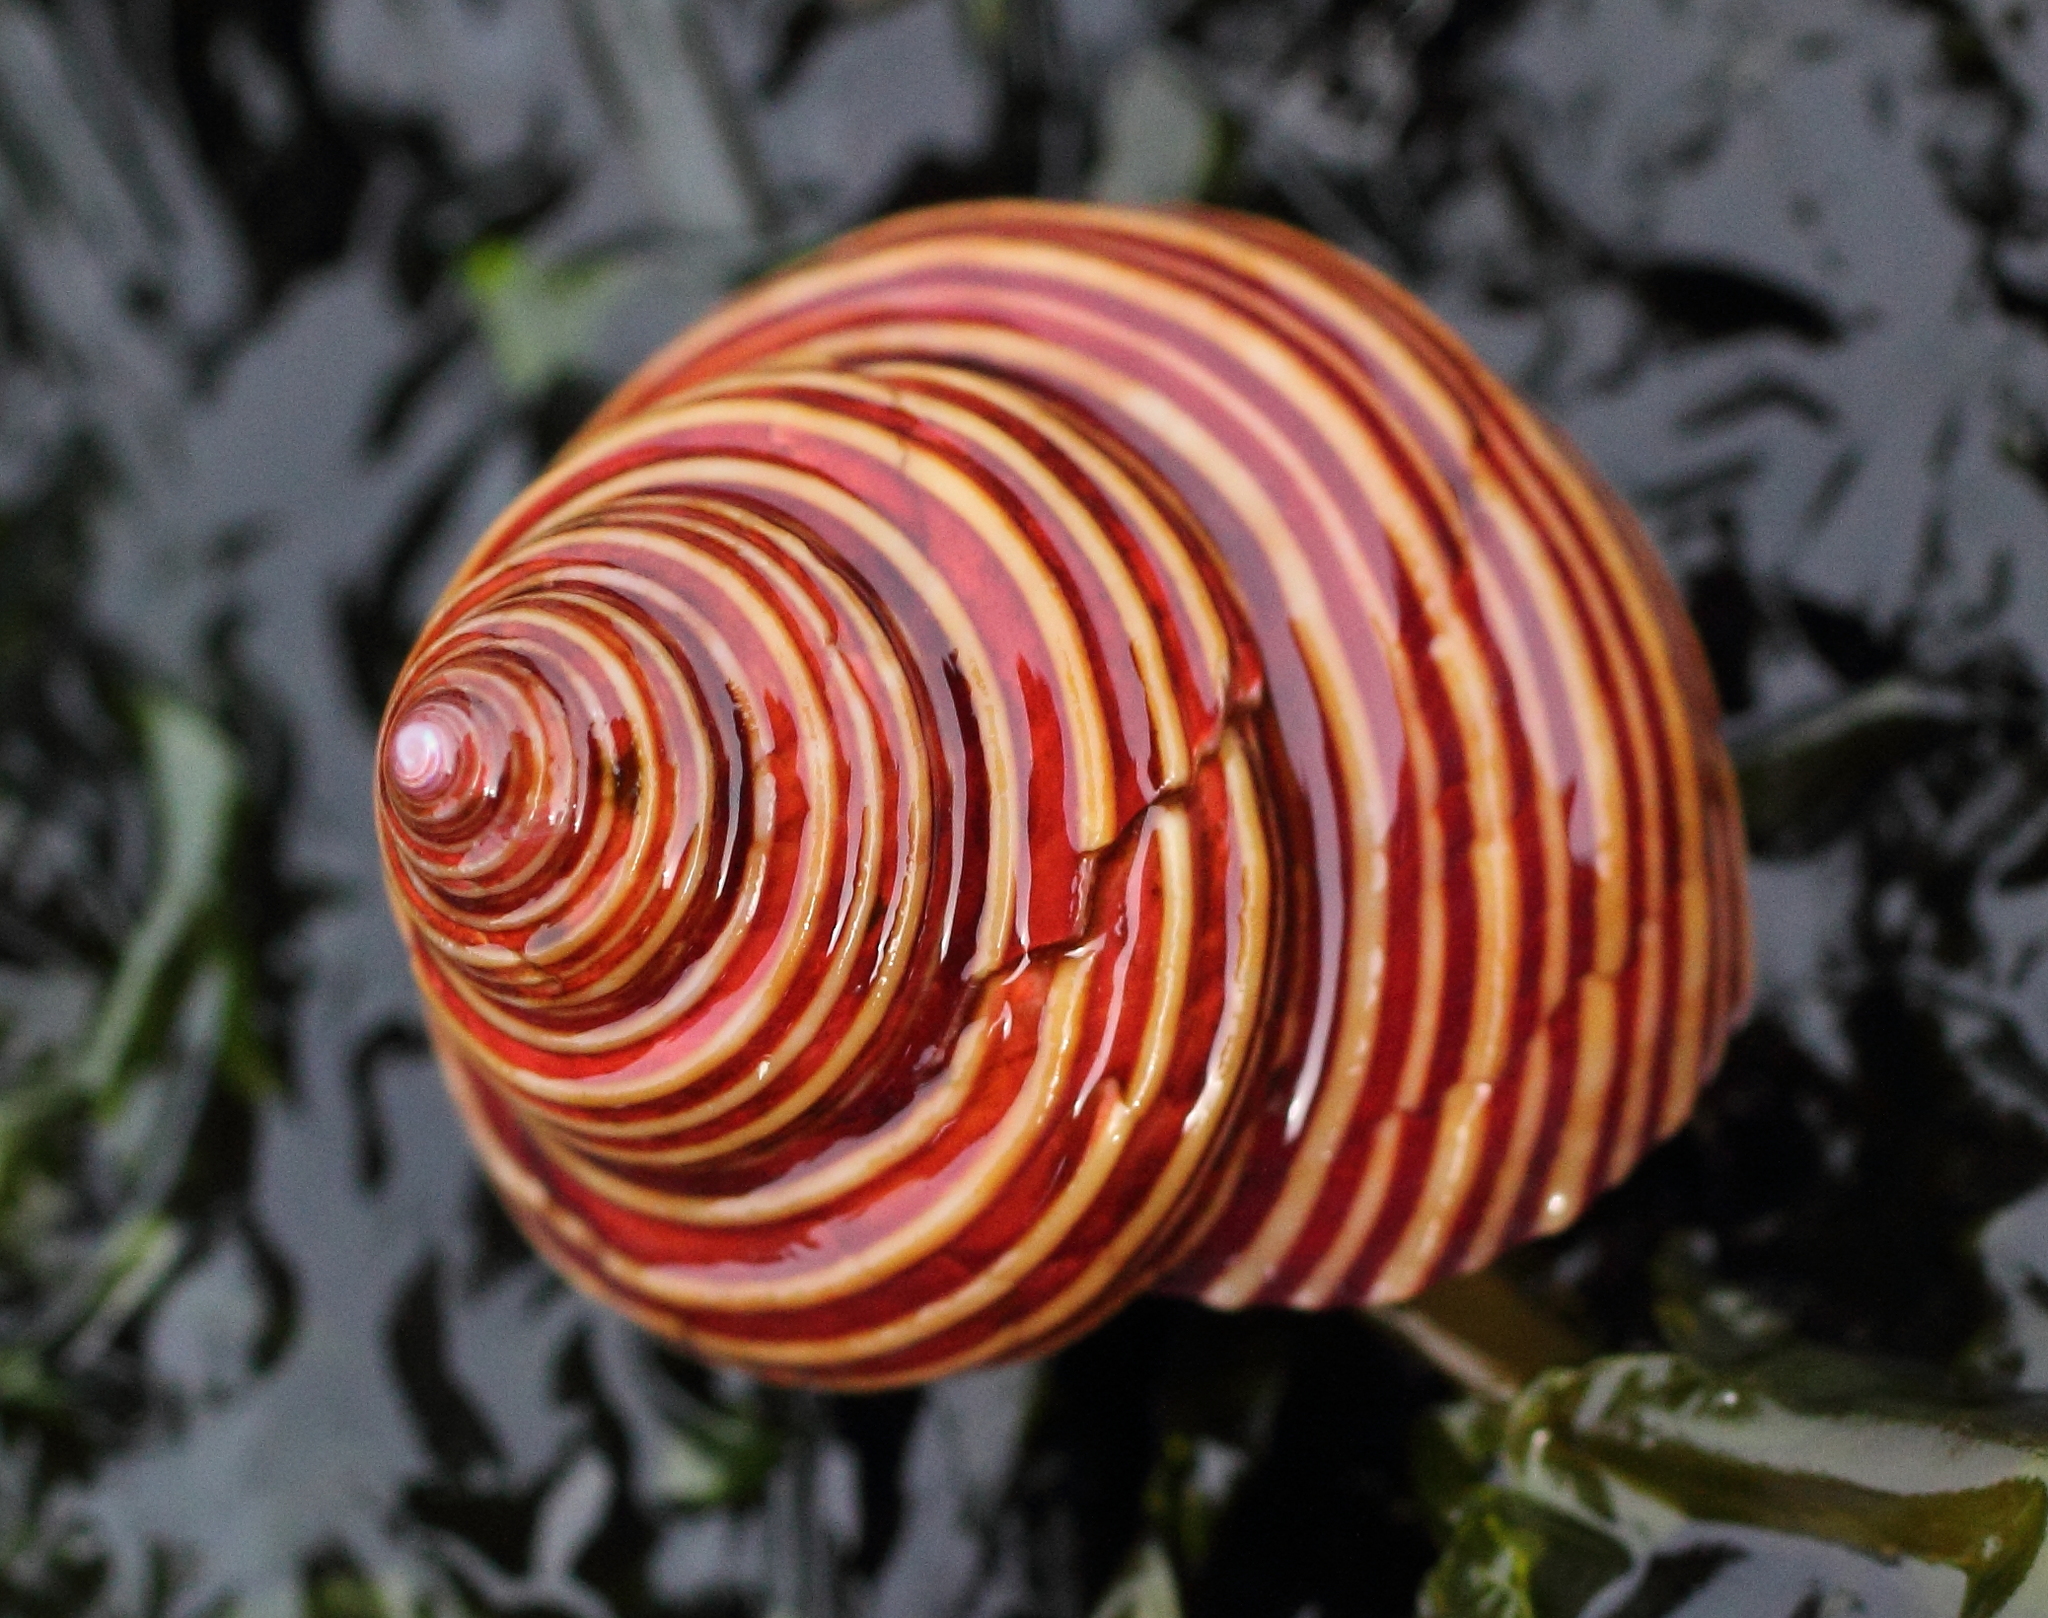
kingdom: Animalia
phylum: Mollusca
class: Gastropoda
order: Trochida
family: Calliostomatidae
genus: Calliostoma
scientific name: Calliostoma ligatum
